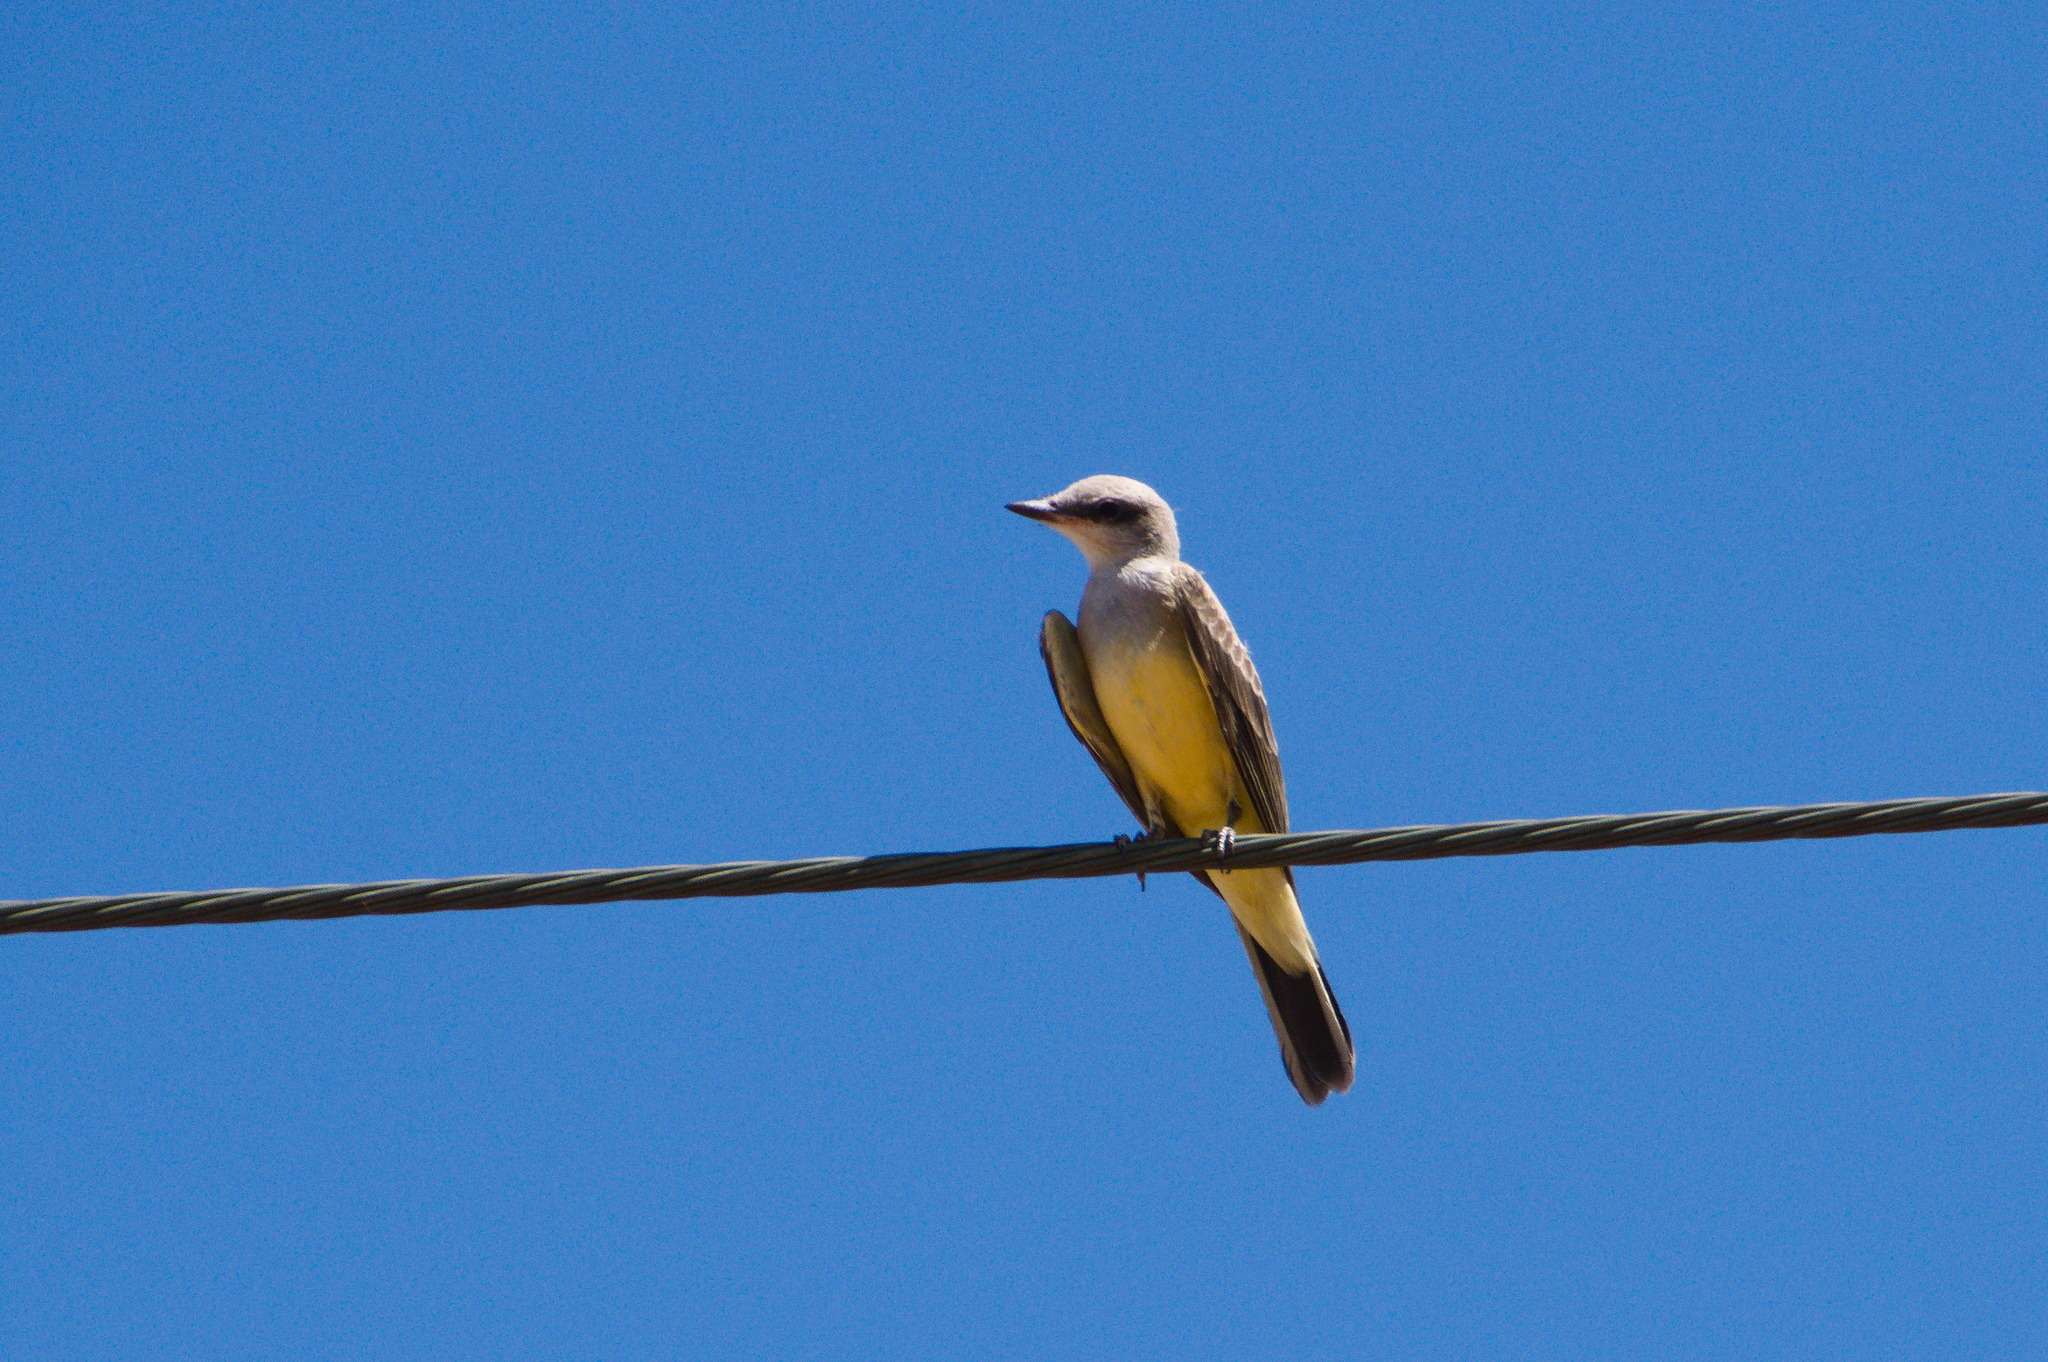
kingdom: Animalia
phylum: Chordata
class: Aves
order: Passeriformes
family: Tyrannidae
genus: Tyrannus
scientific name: Tyrannus verticalis
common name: Western kingbird
